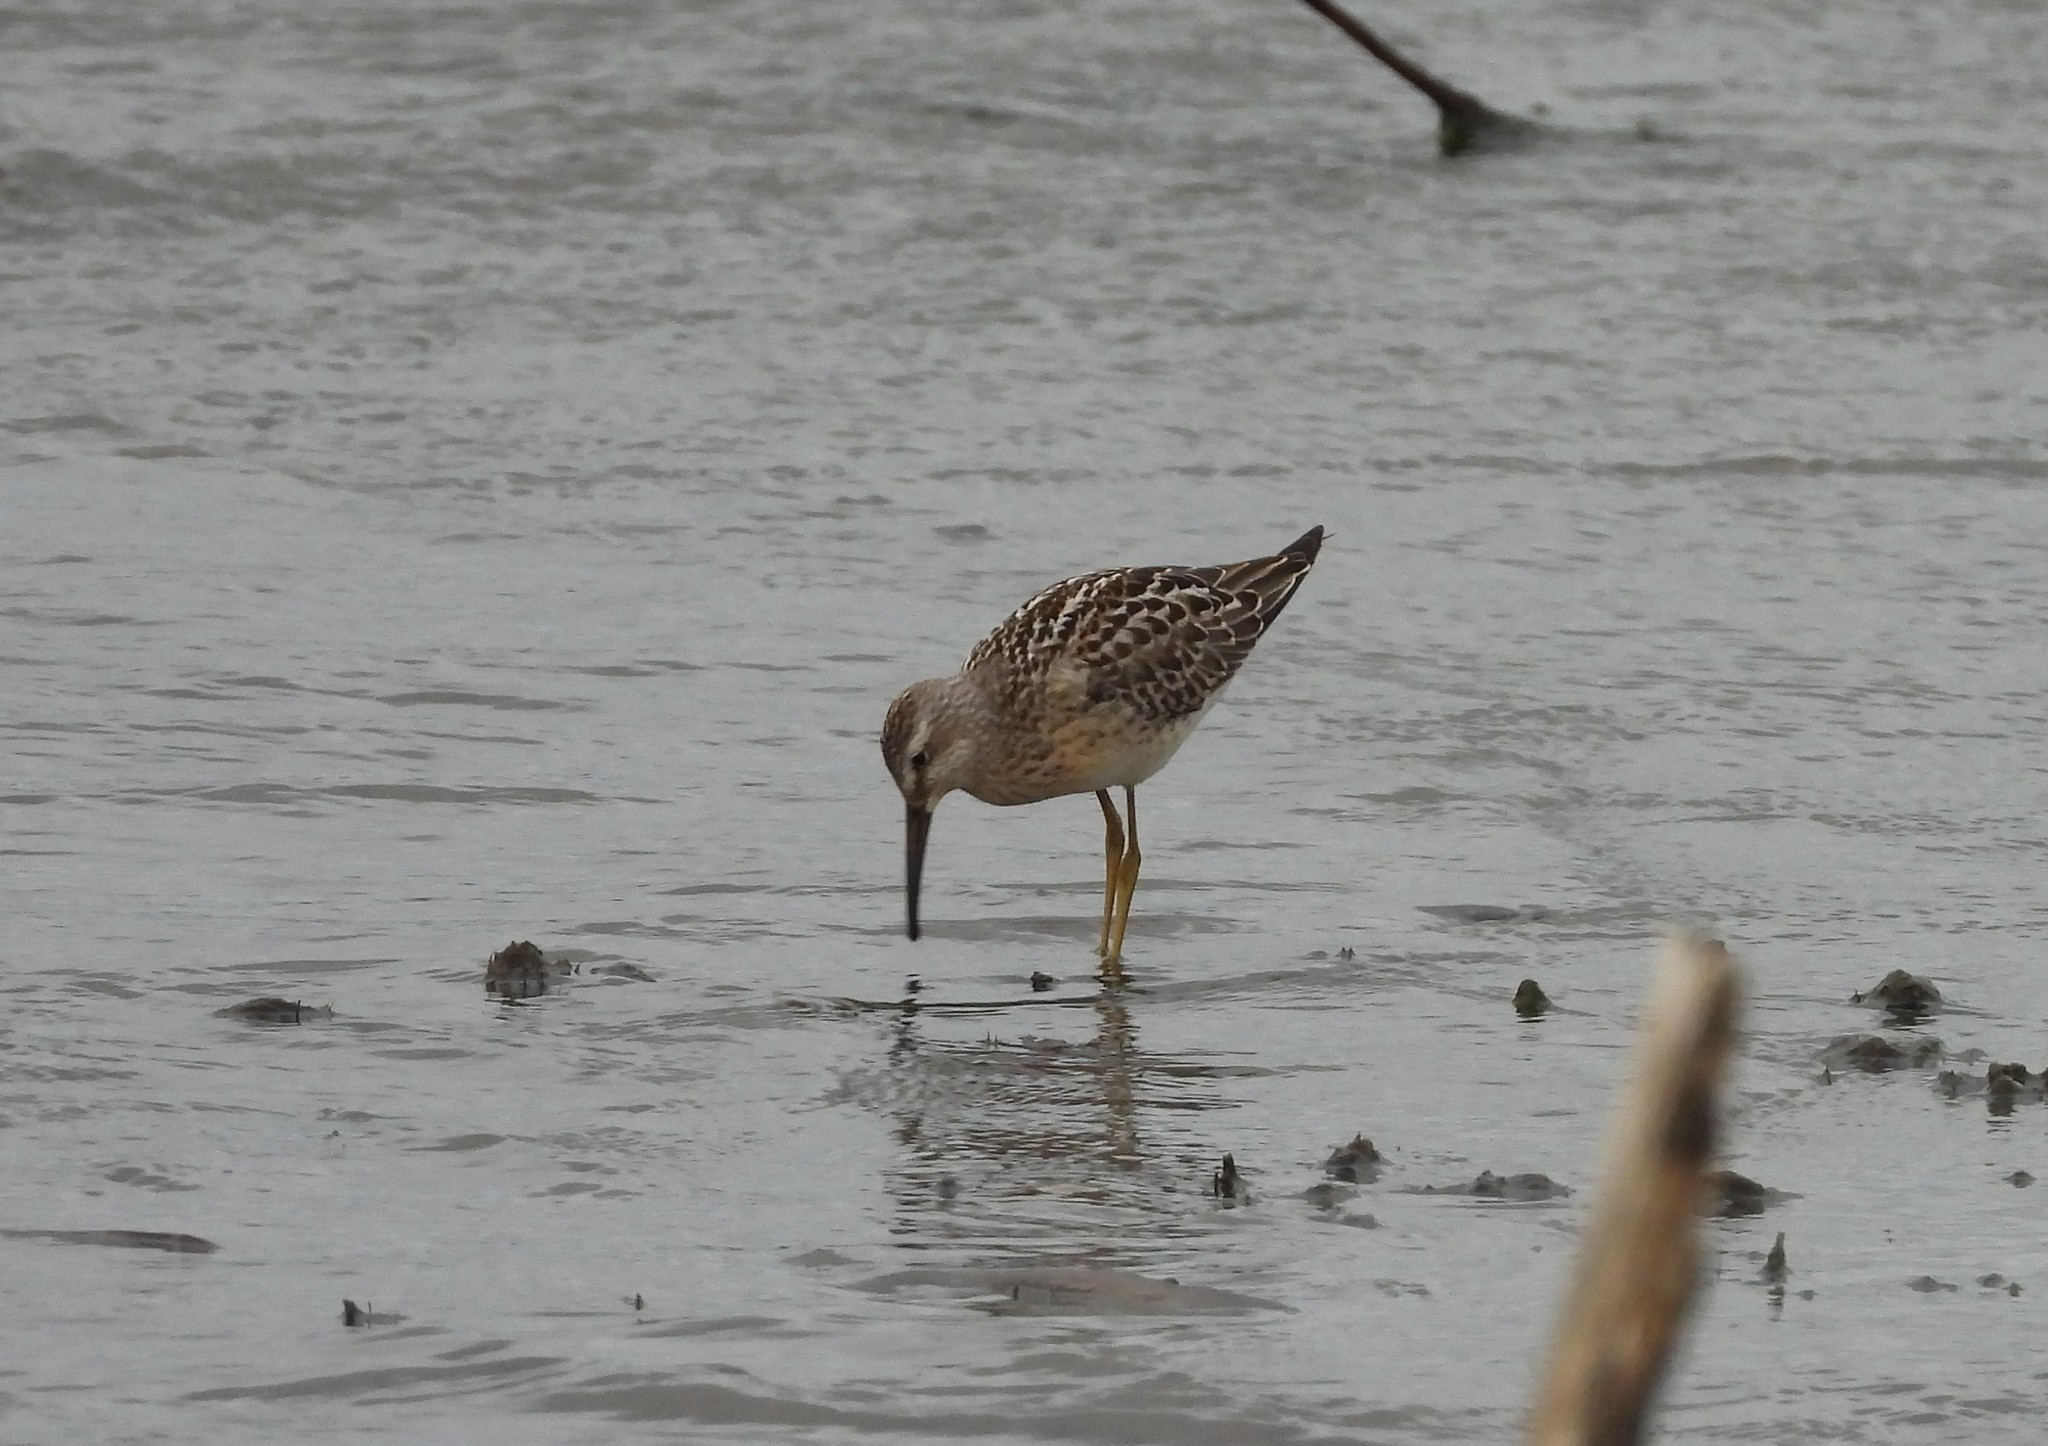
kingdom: Animalia
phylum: Chordata
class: Aves
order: Charadriiformes
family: Scolopacidae
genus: Calidris
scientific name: Calidris himantopus
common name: Stilt sandpiper
